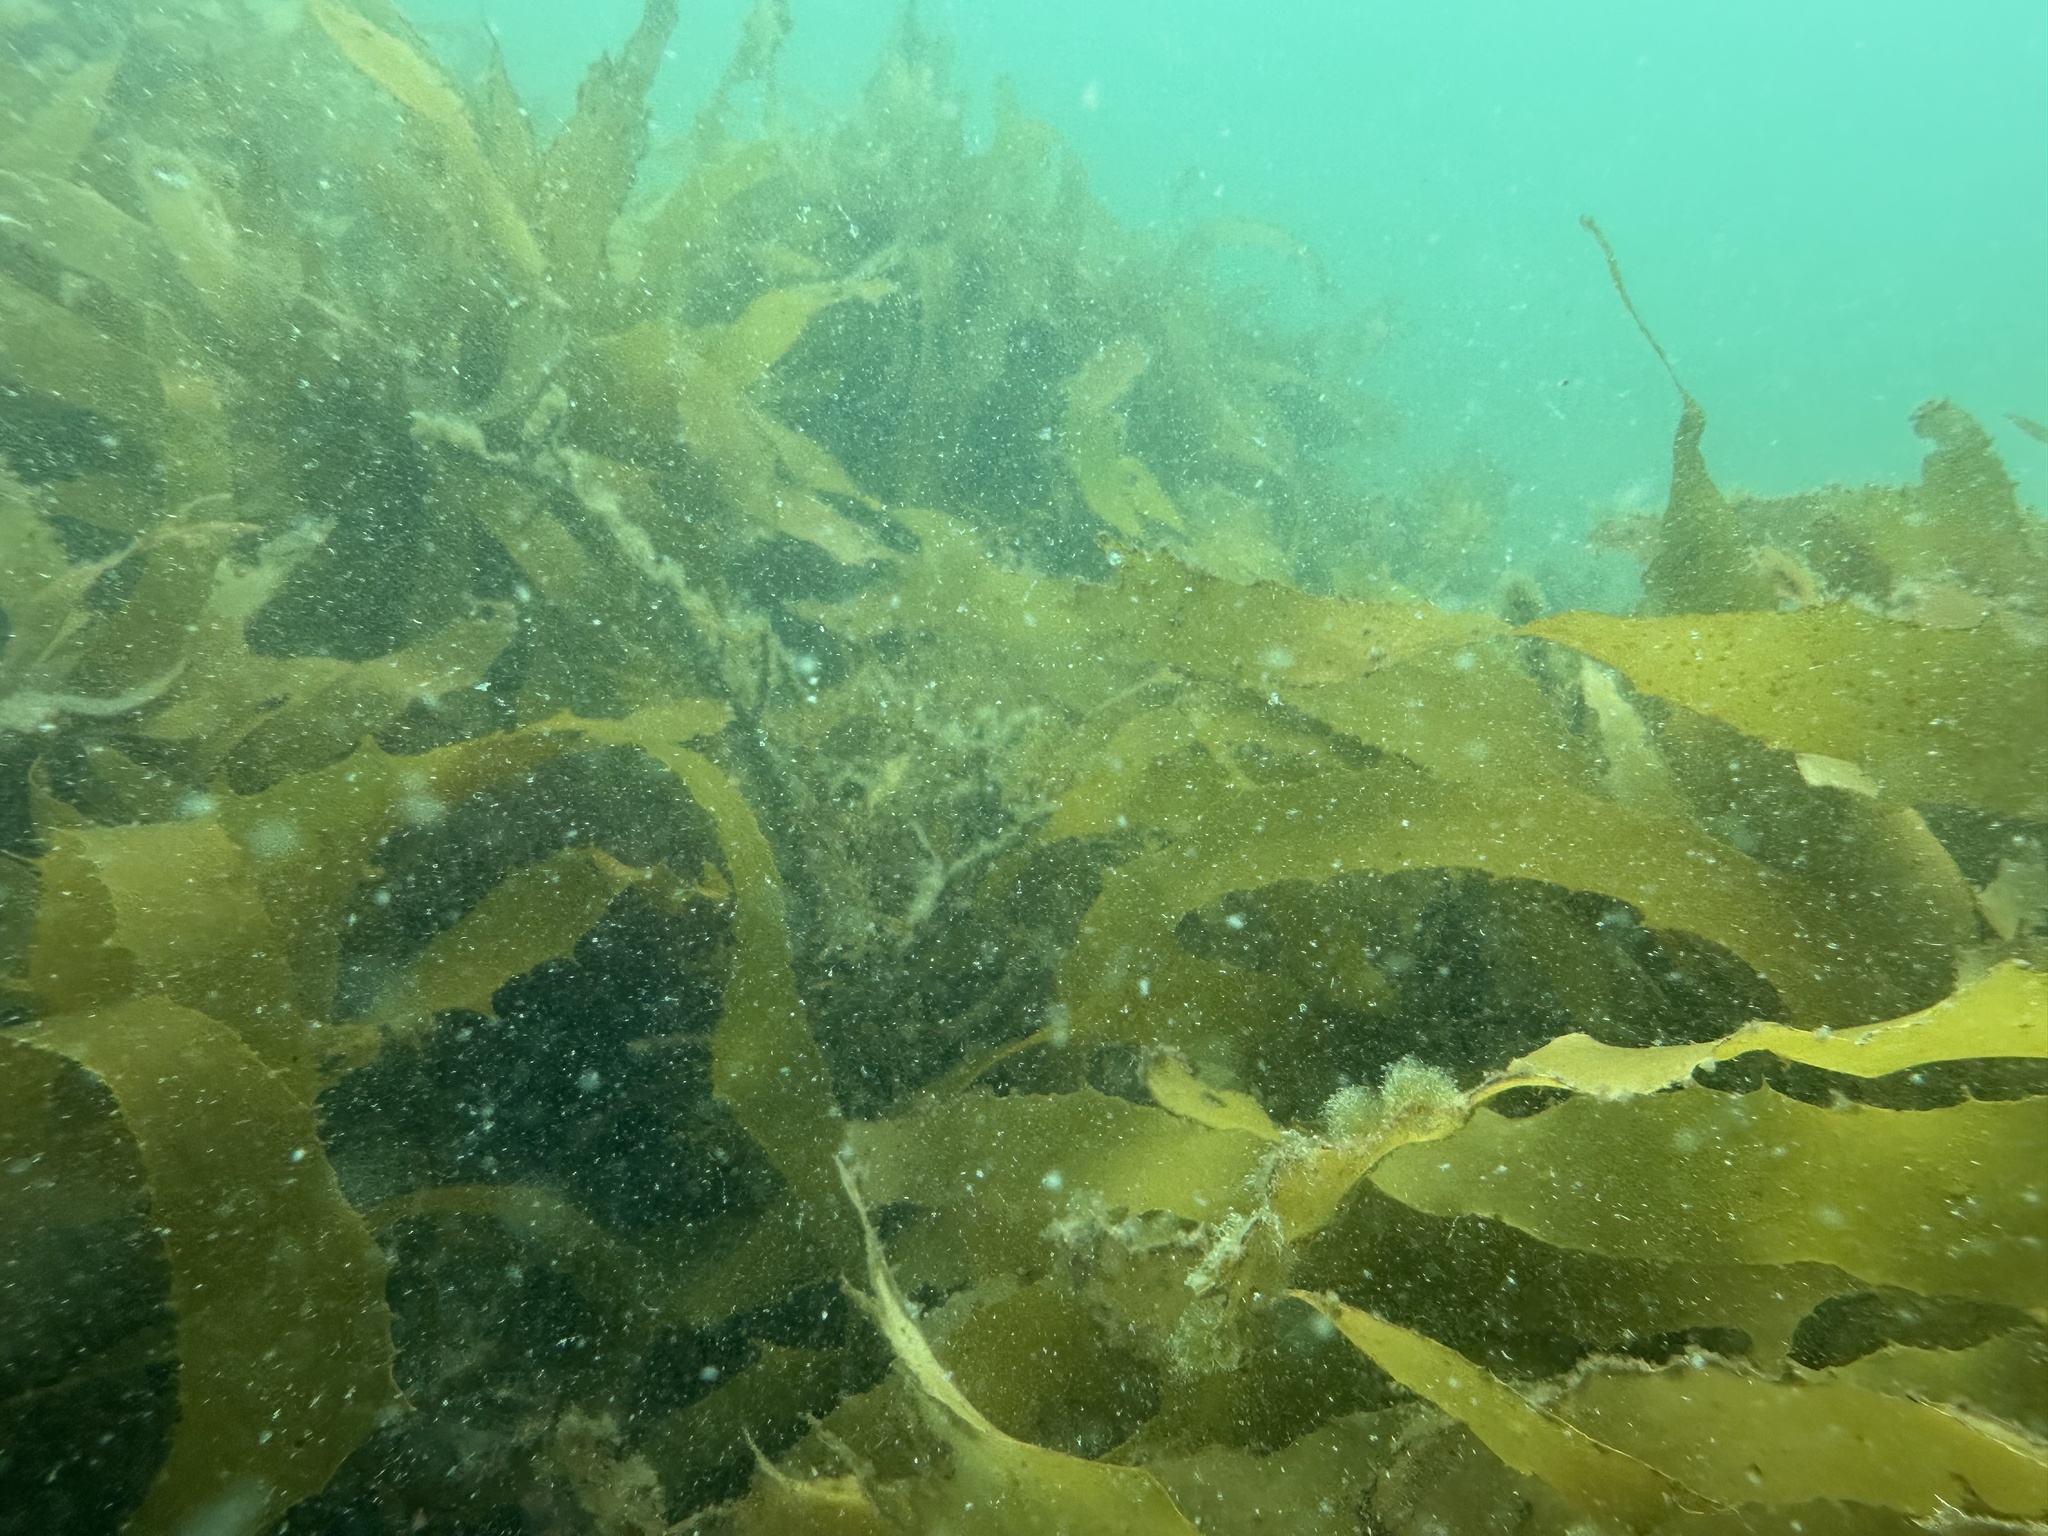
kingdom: Chromista
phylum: Ochrophyta
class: Phaeophyceae
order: Laminariales
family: Lessoniaceae
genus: Ecklonia
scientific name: Ecklonia radiata
